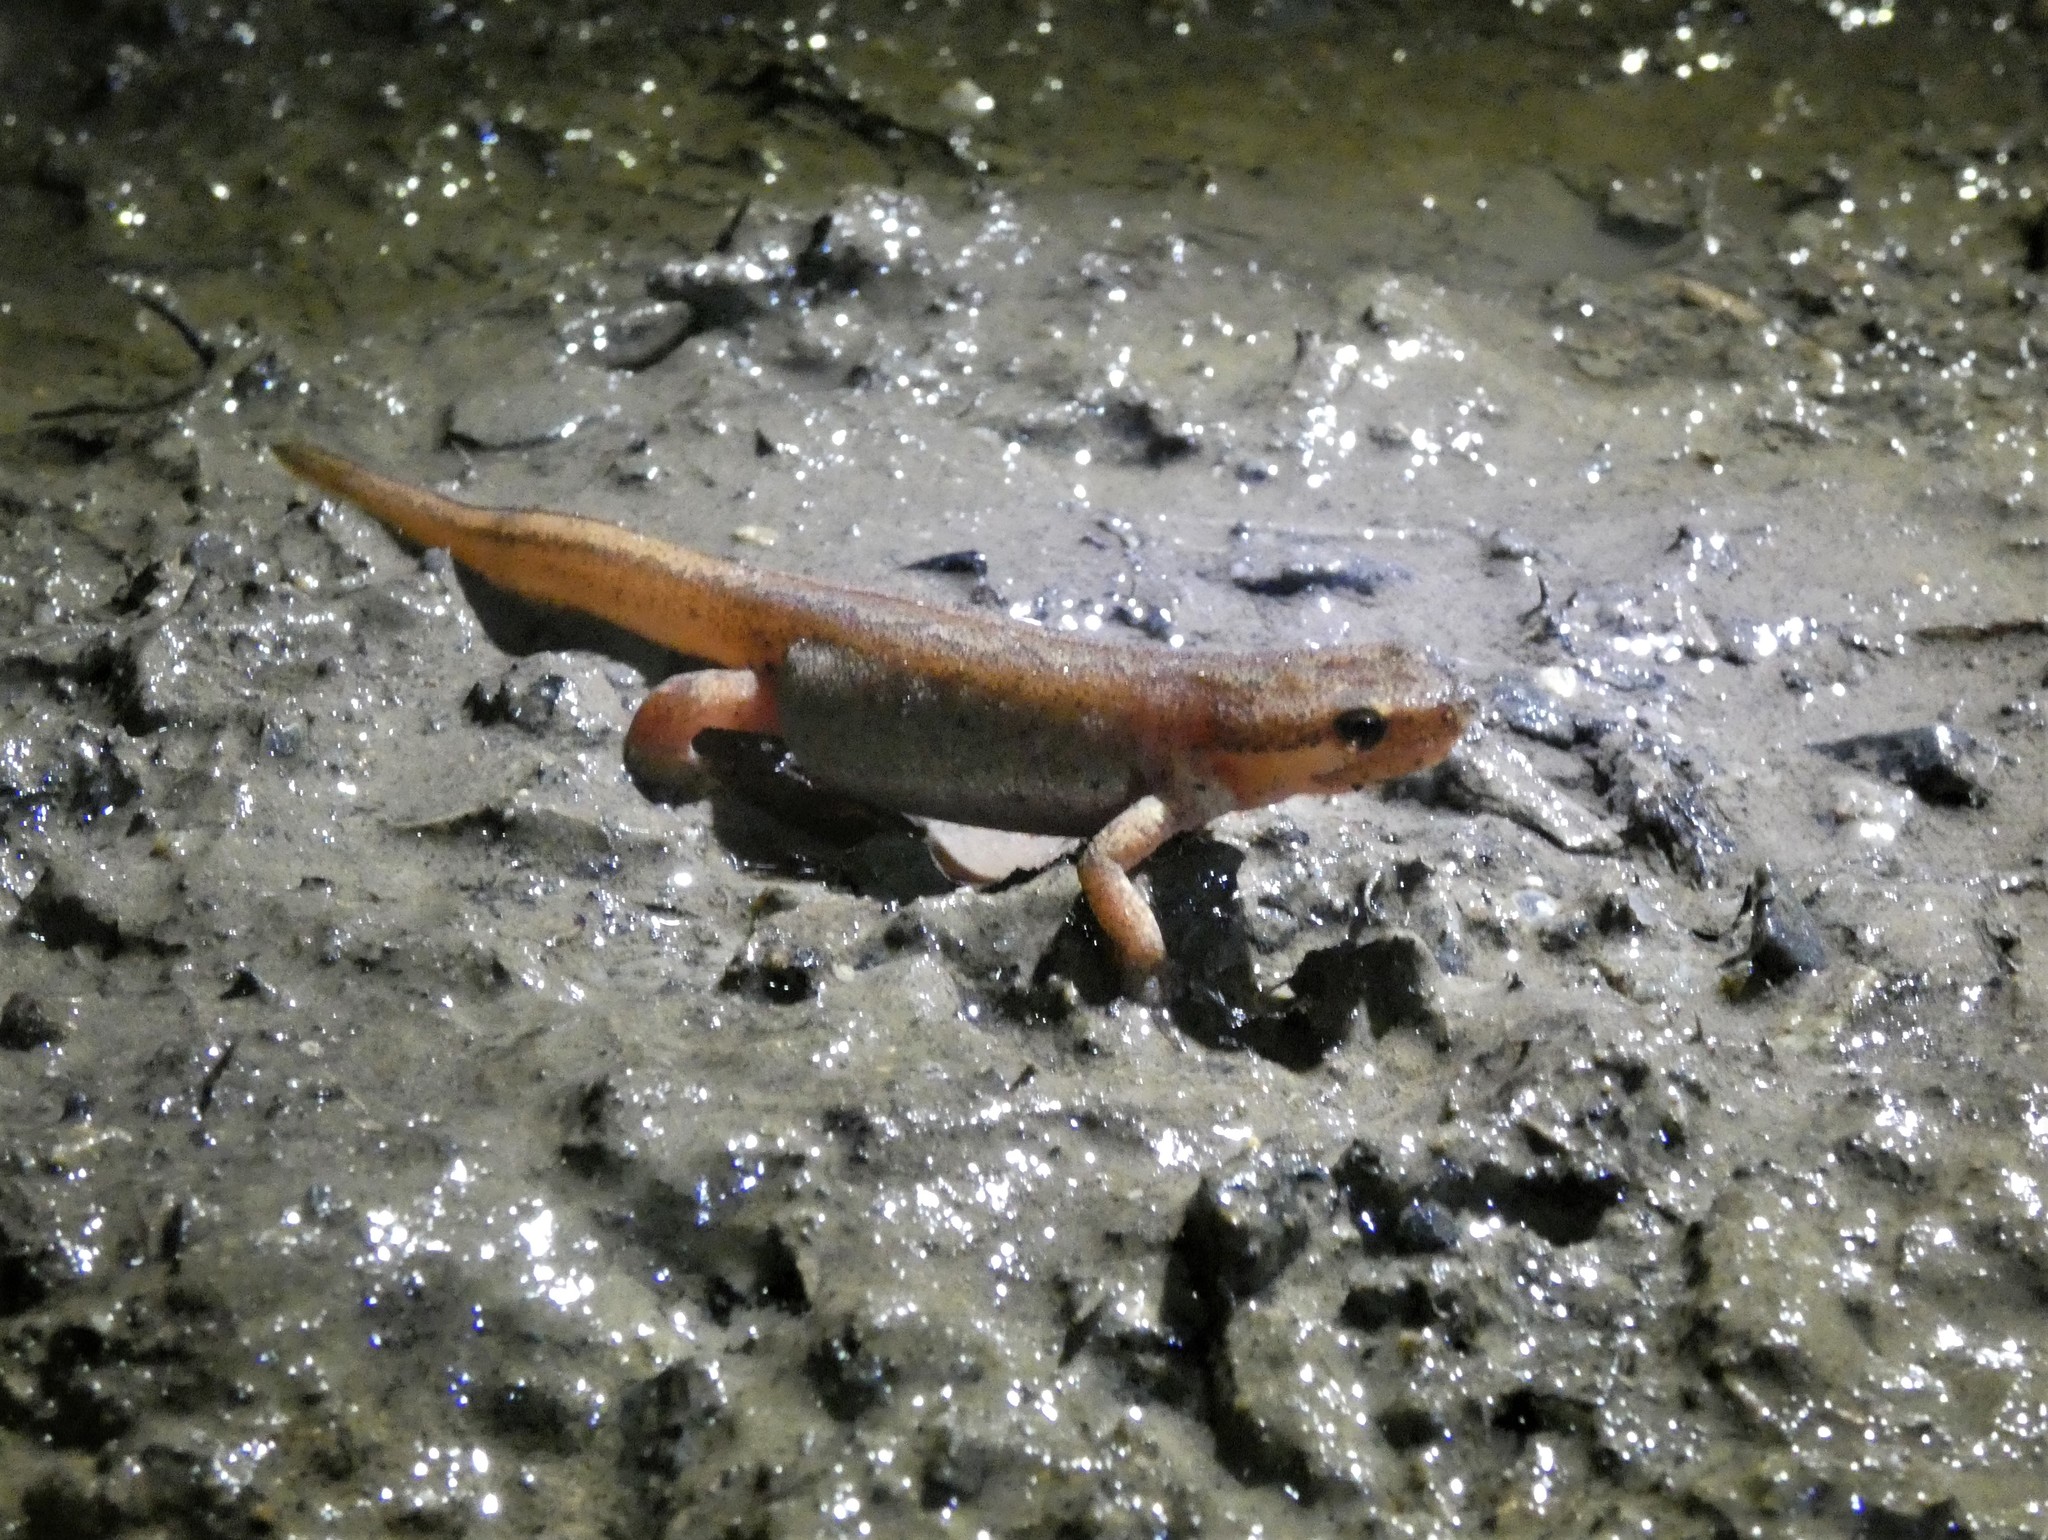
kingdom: Animalia
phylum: Chordata
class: Amphibia
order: Caudata
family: Salamandridae
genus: Lissotriton
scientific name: Lissotriton helveticus
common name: Palmate newt
